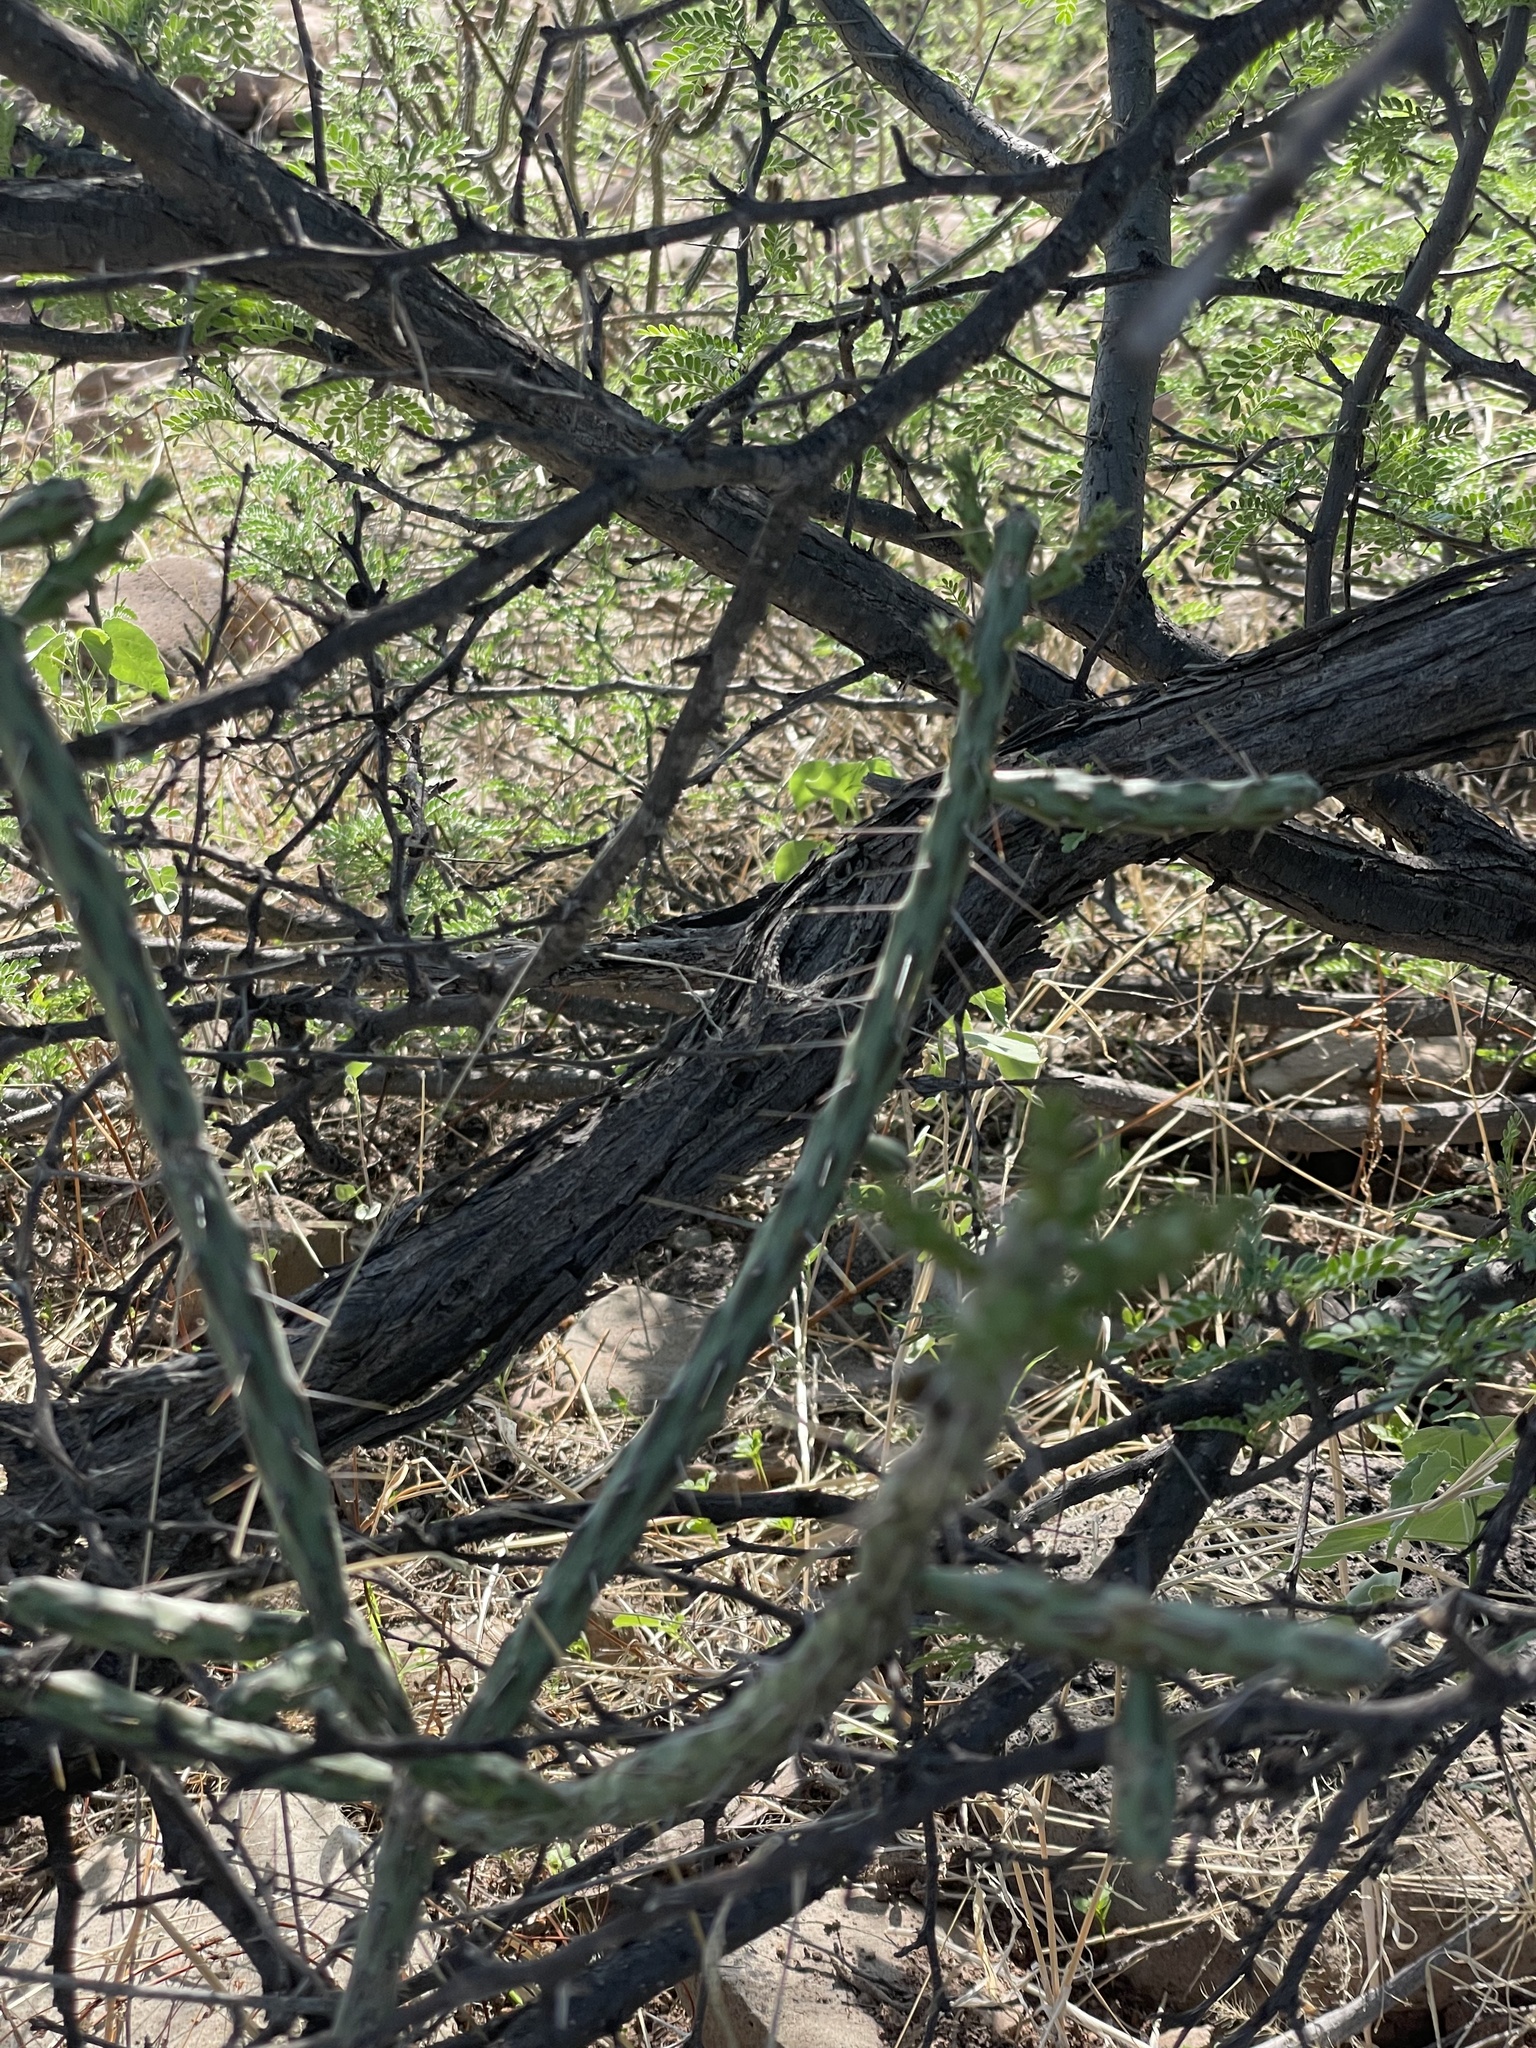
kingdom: Plantae
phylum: Tracheophyta
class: Magnoliopsida
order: Caryophyllales
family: Cactaceae
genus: Cylindropuntia
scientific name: Cylindropuntia waltoniorum
